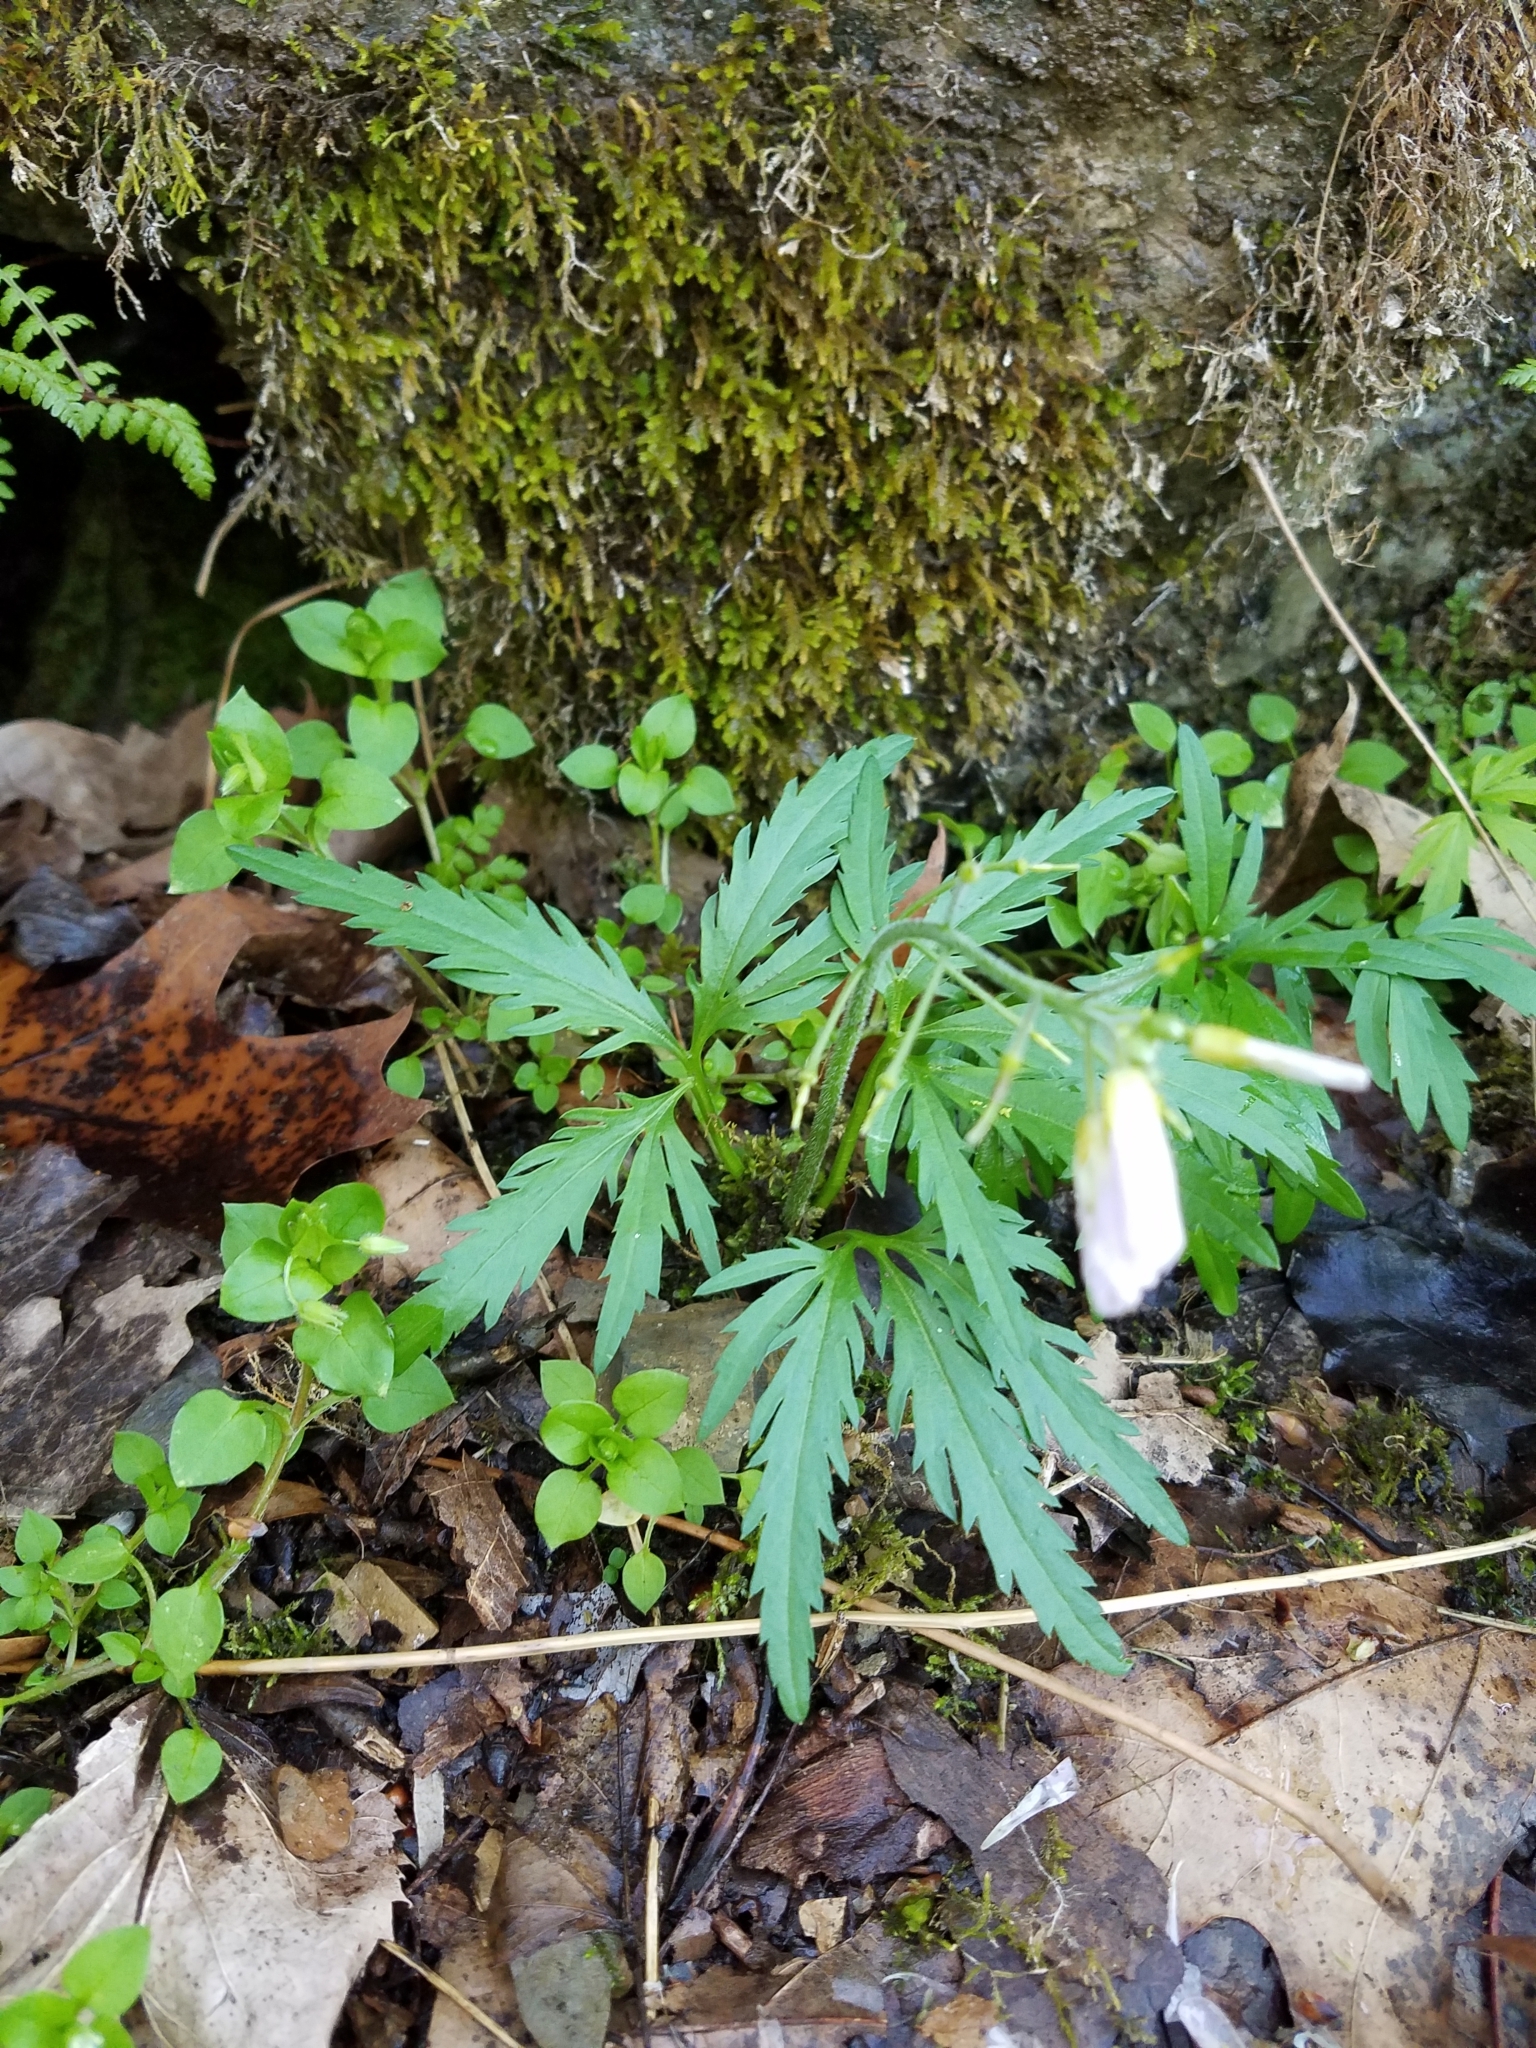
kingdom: Plantae
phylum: Tracheophyta
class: Magnoliopsida
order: Brassicales
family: Brassicaceae
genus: Cardamine
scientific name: Cardamine concatenata
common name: Cut-leaf toothcup
